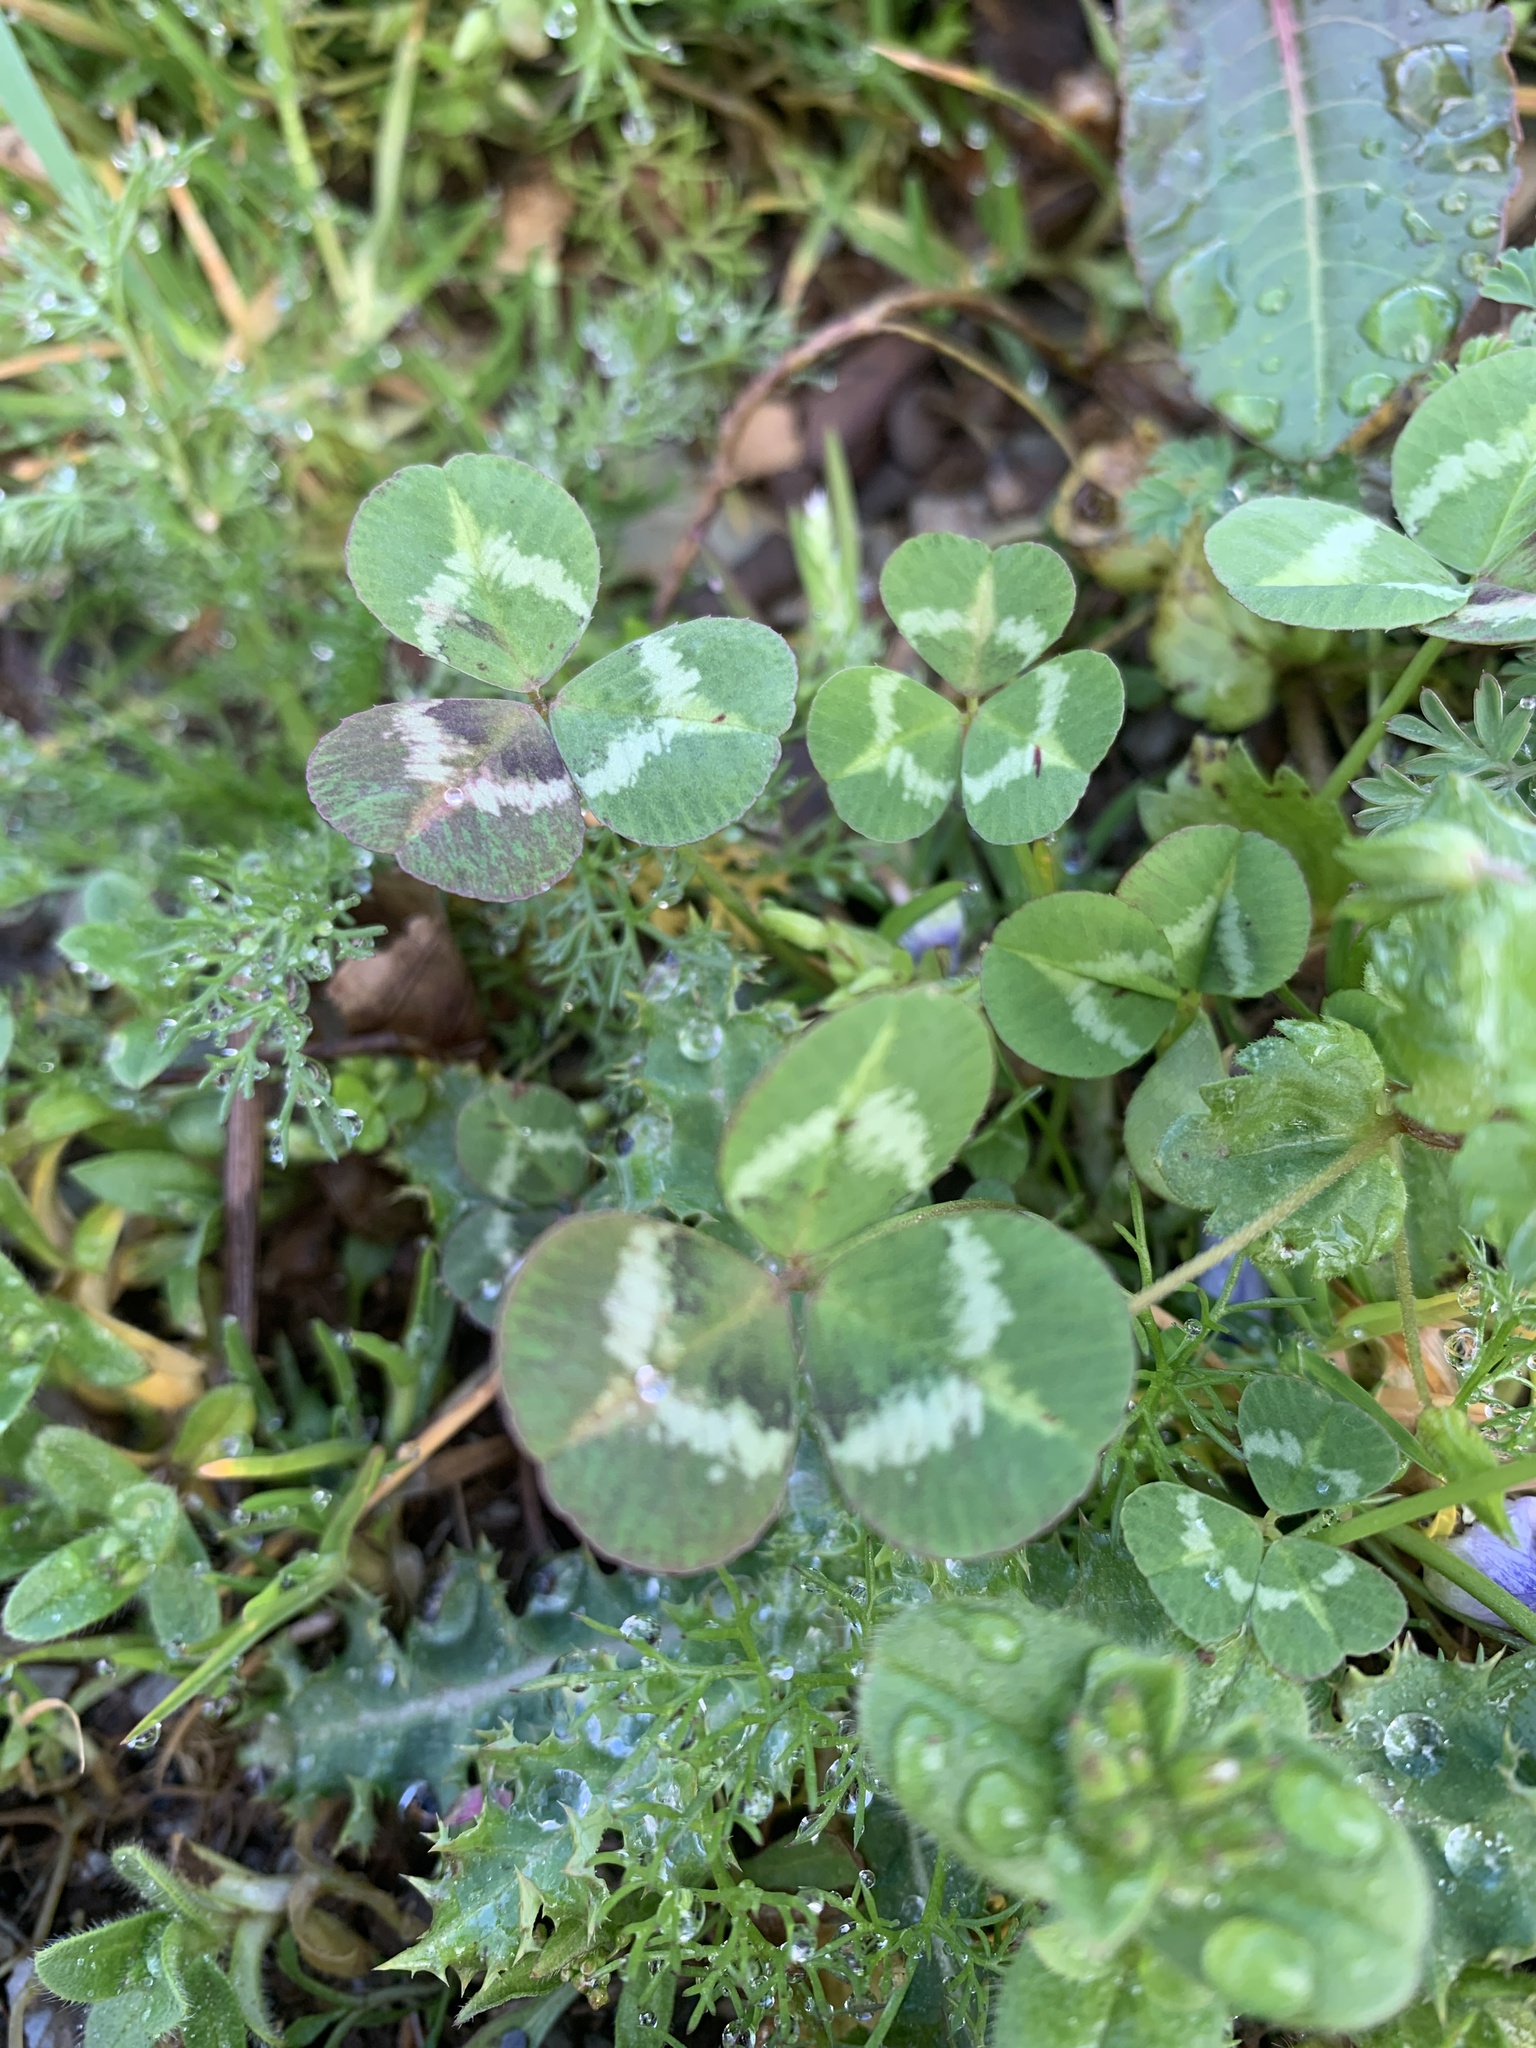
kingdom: Plantae
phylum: Tracheophyta
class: Magnoliopsida
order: Fabales
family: Fabaceae
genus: Trifolium
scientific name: Trifolium repens
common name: White clover
